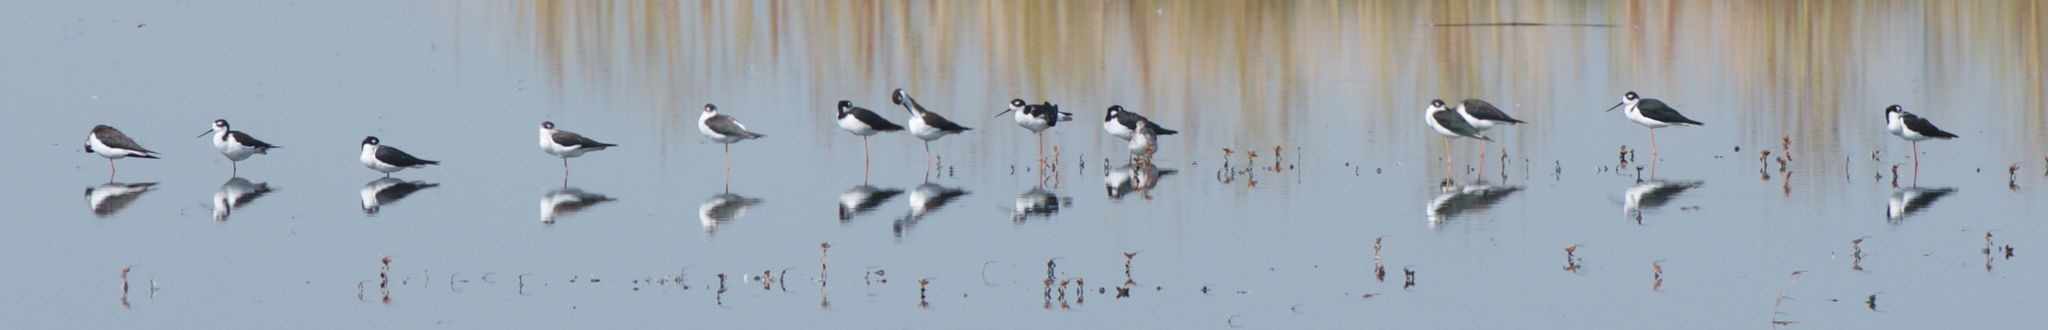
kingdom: Animalia
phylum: Chordata
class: Aves
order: Charadriiformes
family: Recurvirostridae
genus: Himantopus
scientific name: Himantopus mexicanus
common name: Black-necked stilt
